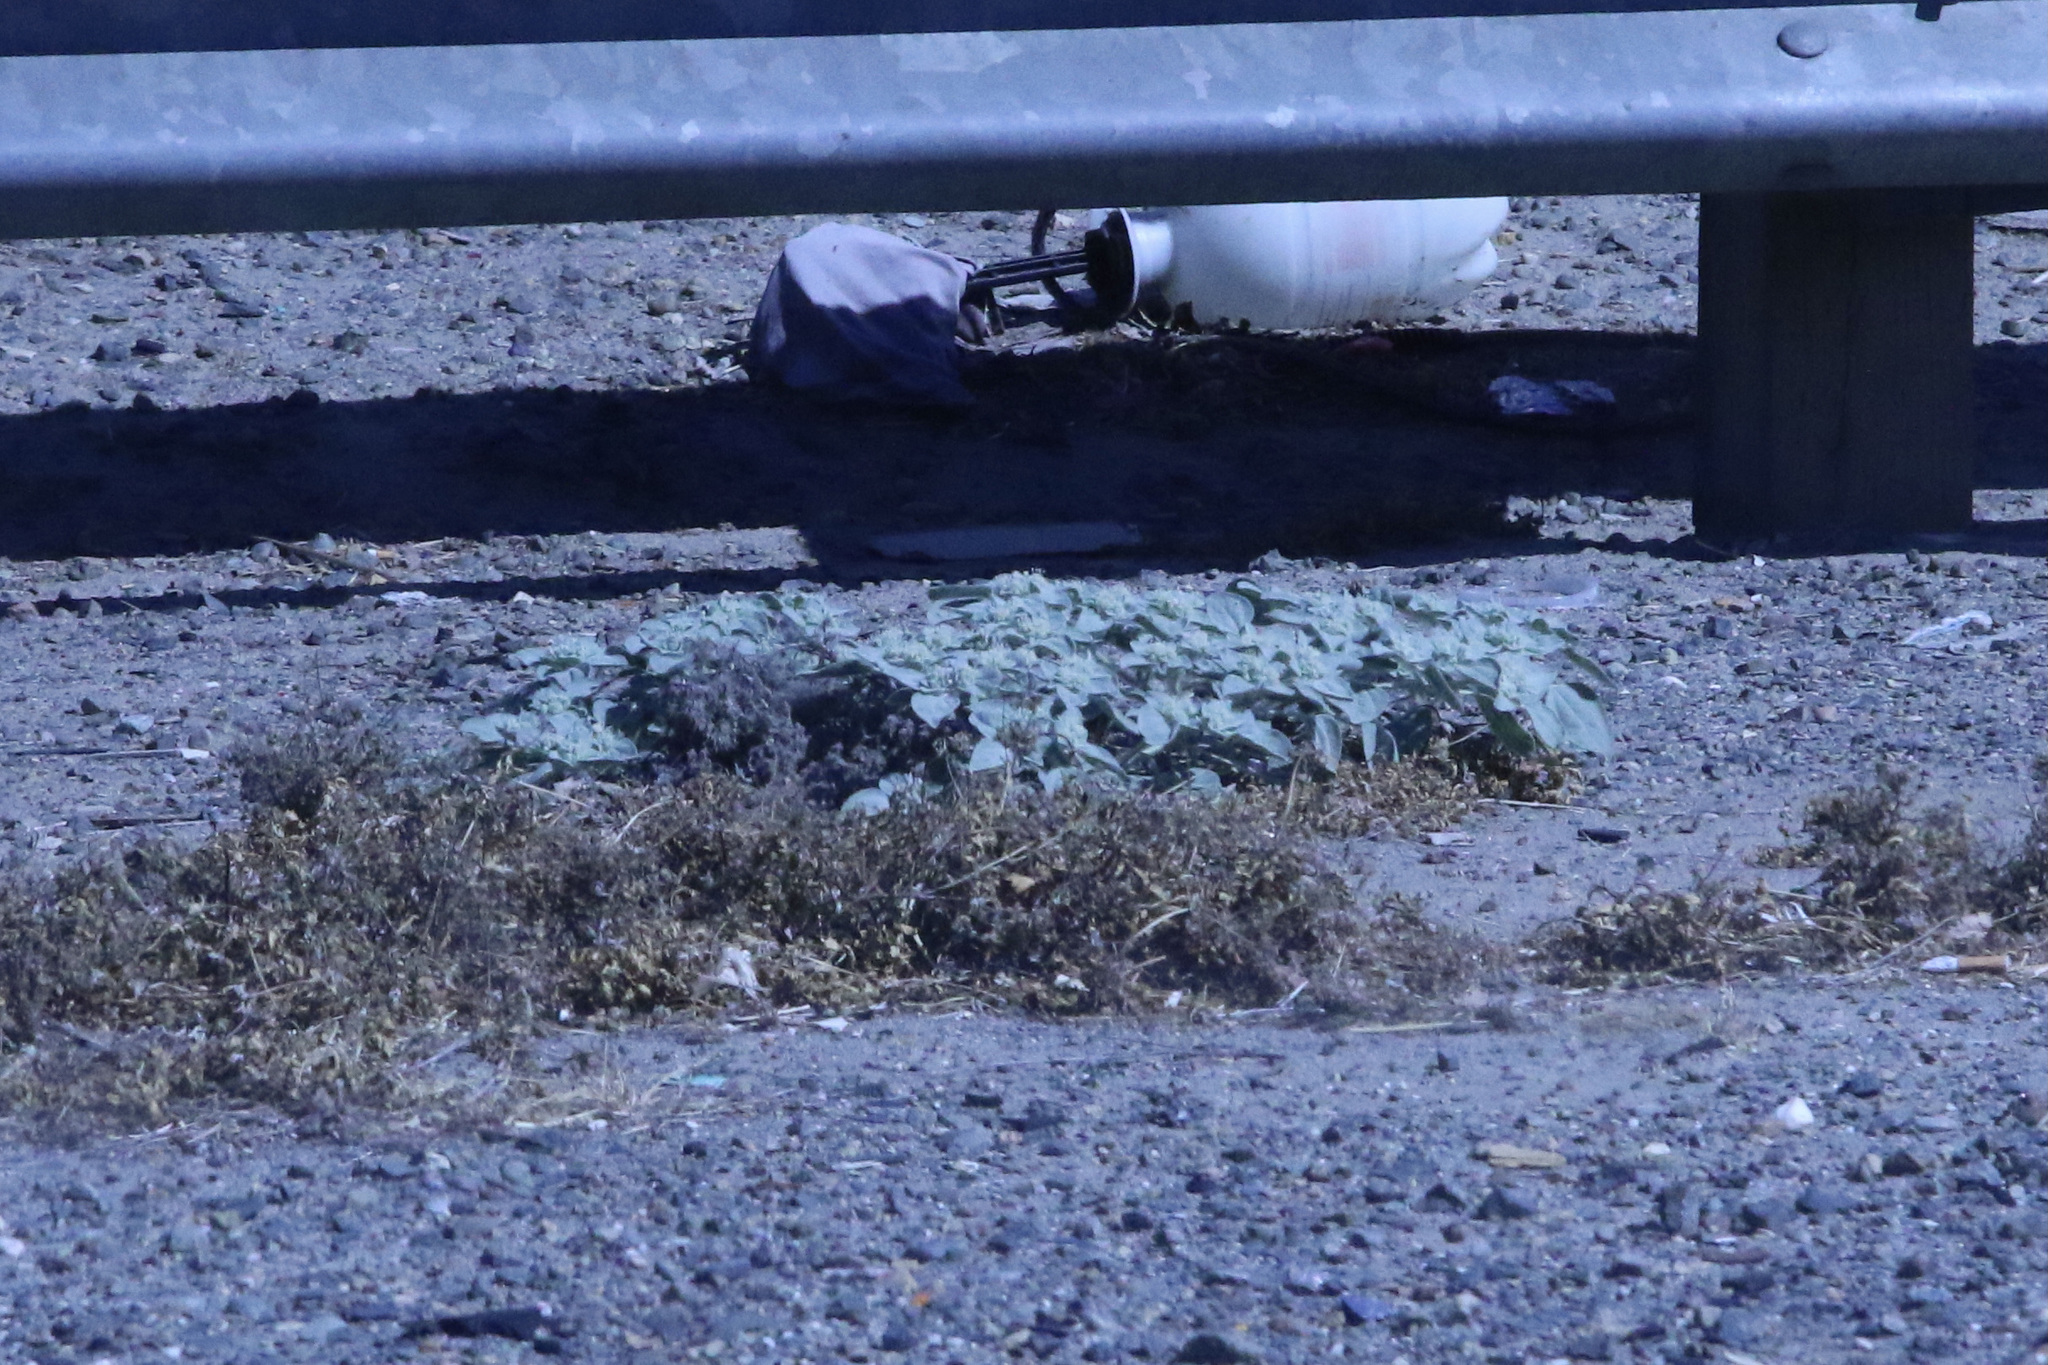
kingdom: Plantae
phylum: Tracheophyta
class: Magnoliopsida
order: Malpighiales
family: Euphorbiaceae
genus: Croton
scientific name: Croton setiger
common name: Dove weed
